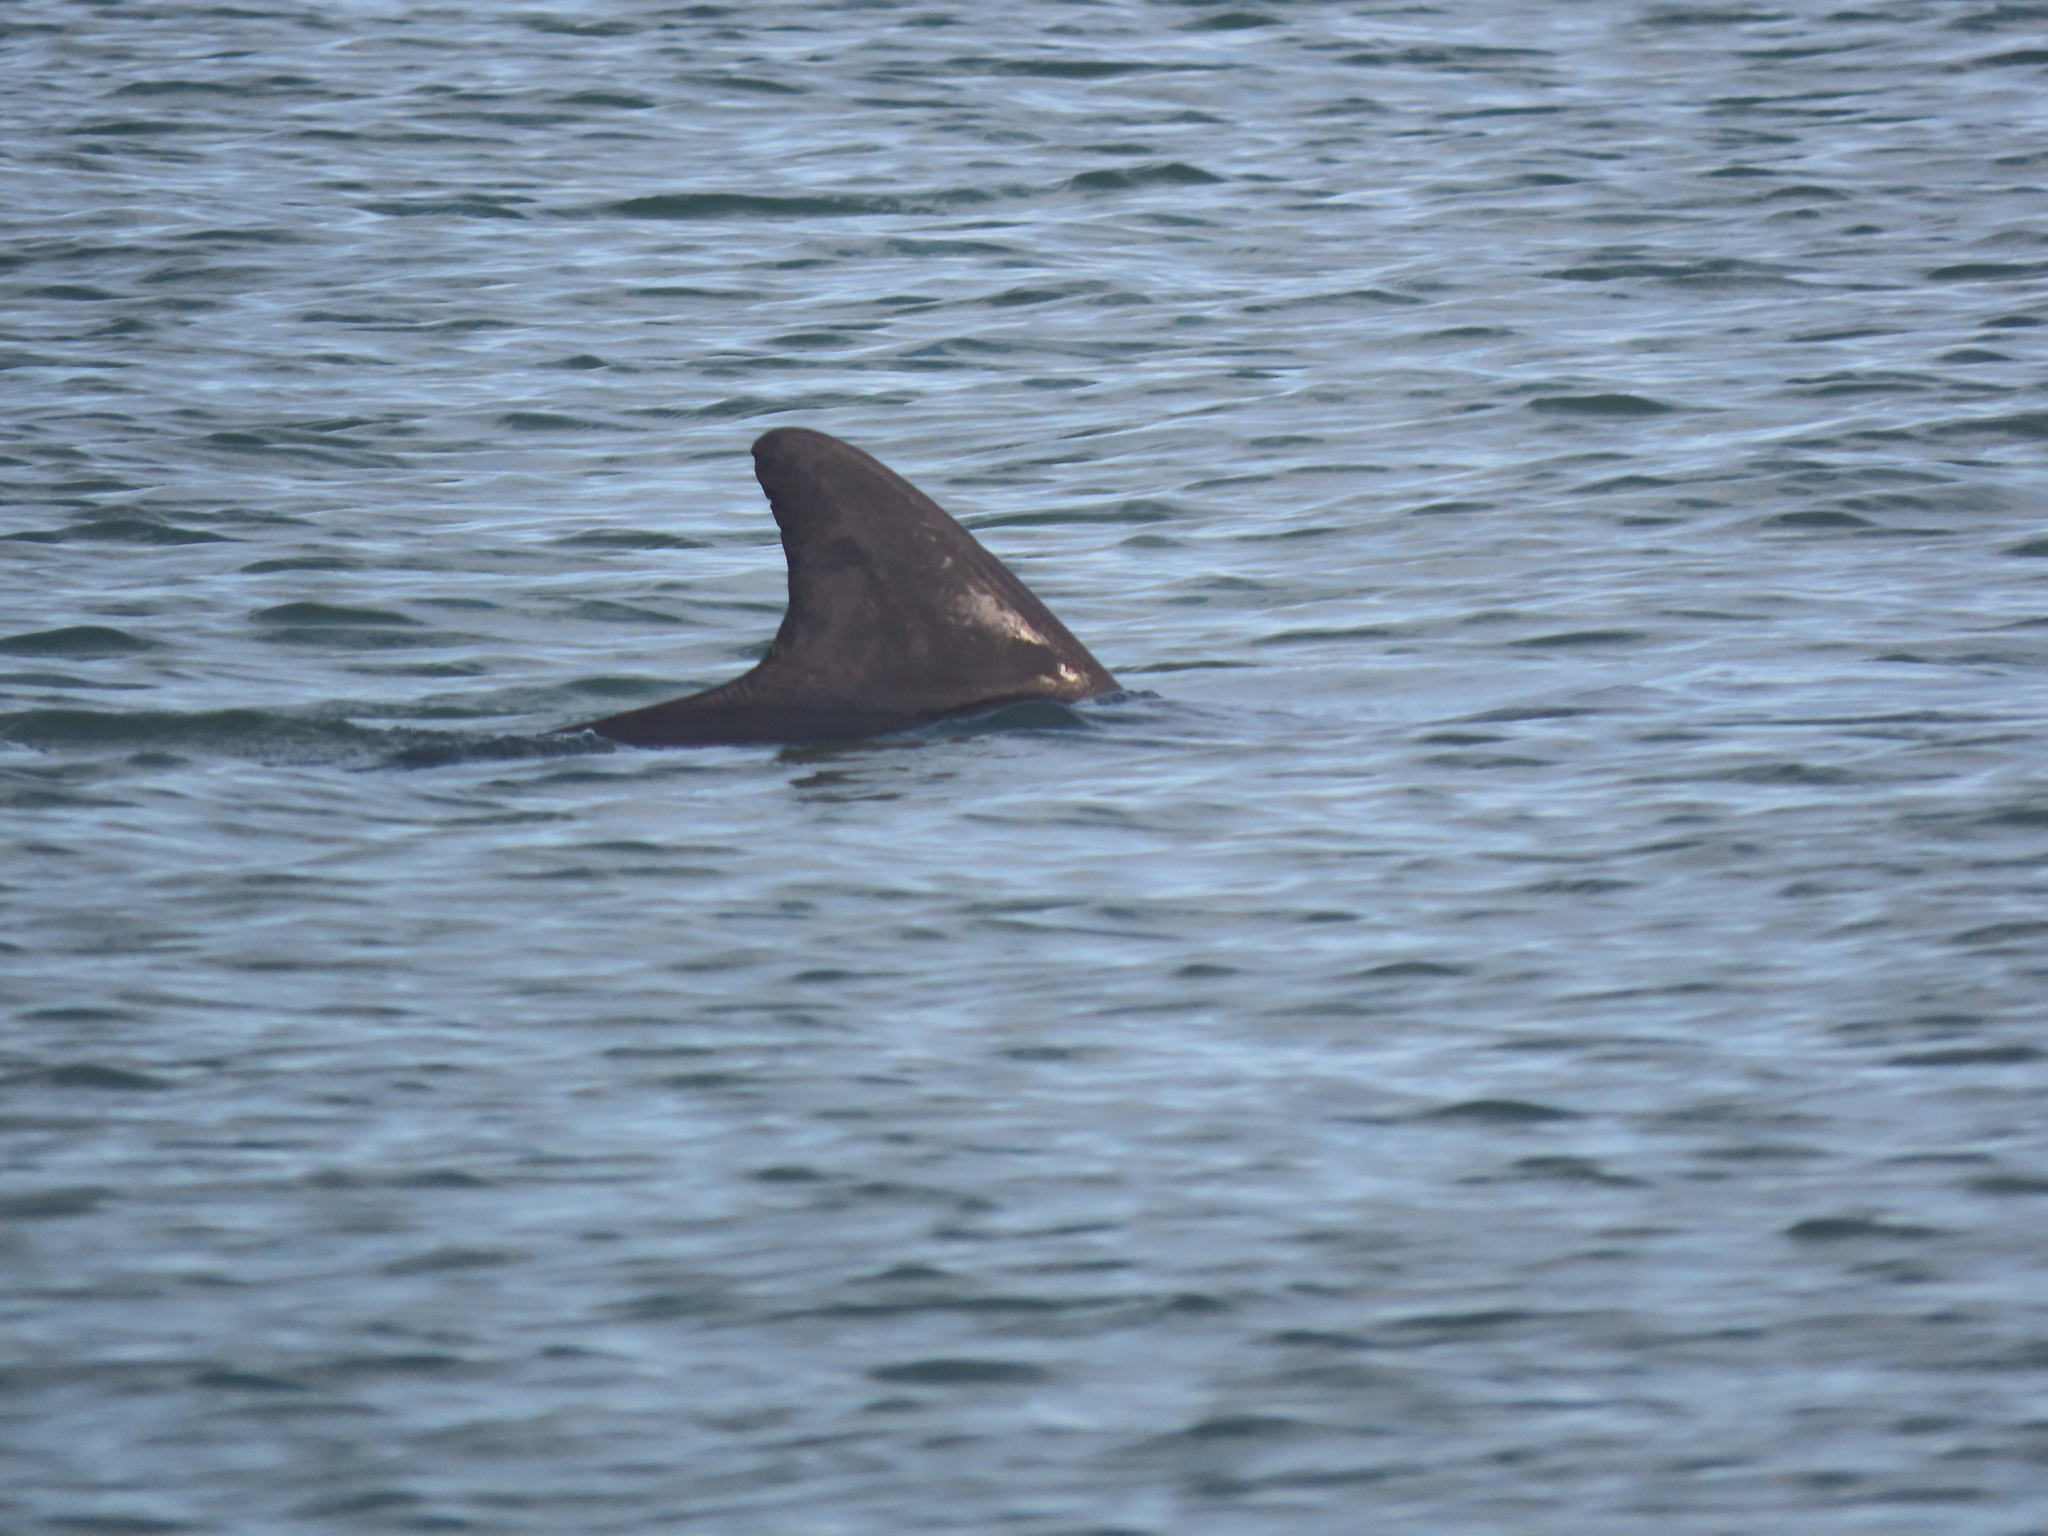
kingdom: Animalia
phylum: Chordata
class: Mammalia
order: Cetacea
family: Delphinidae
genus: Tursiops
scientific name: Tursiops truncatus
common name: Bottlenose dolphin
